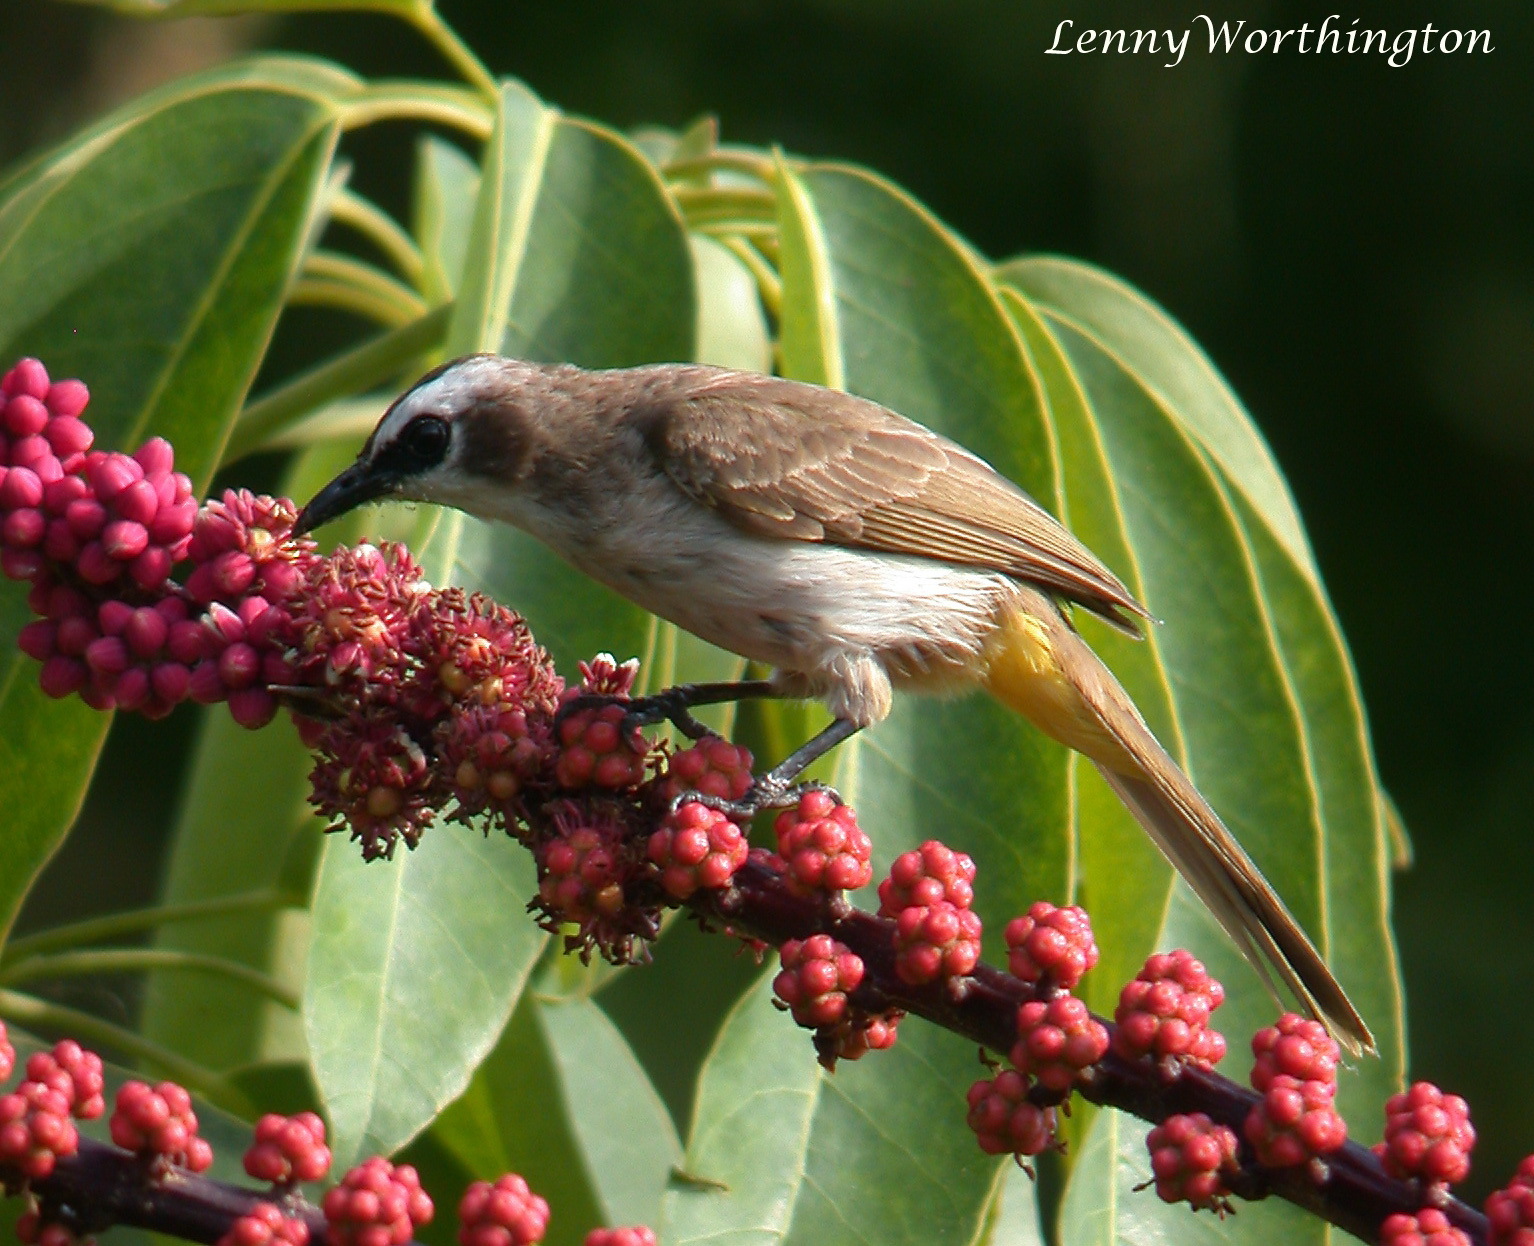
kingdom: Animalia
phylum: Chordata
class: Aves
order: Passeriformes
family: Pycnonotidae
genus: Pycnonotus
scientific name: Pycnonotus goiavier
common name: Yellow-vented bulbul
